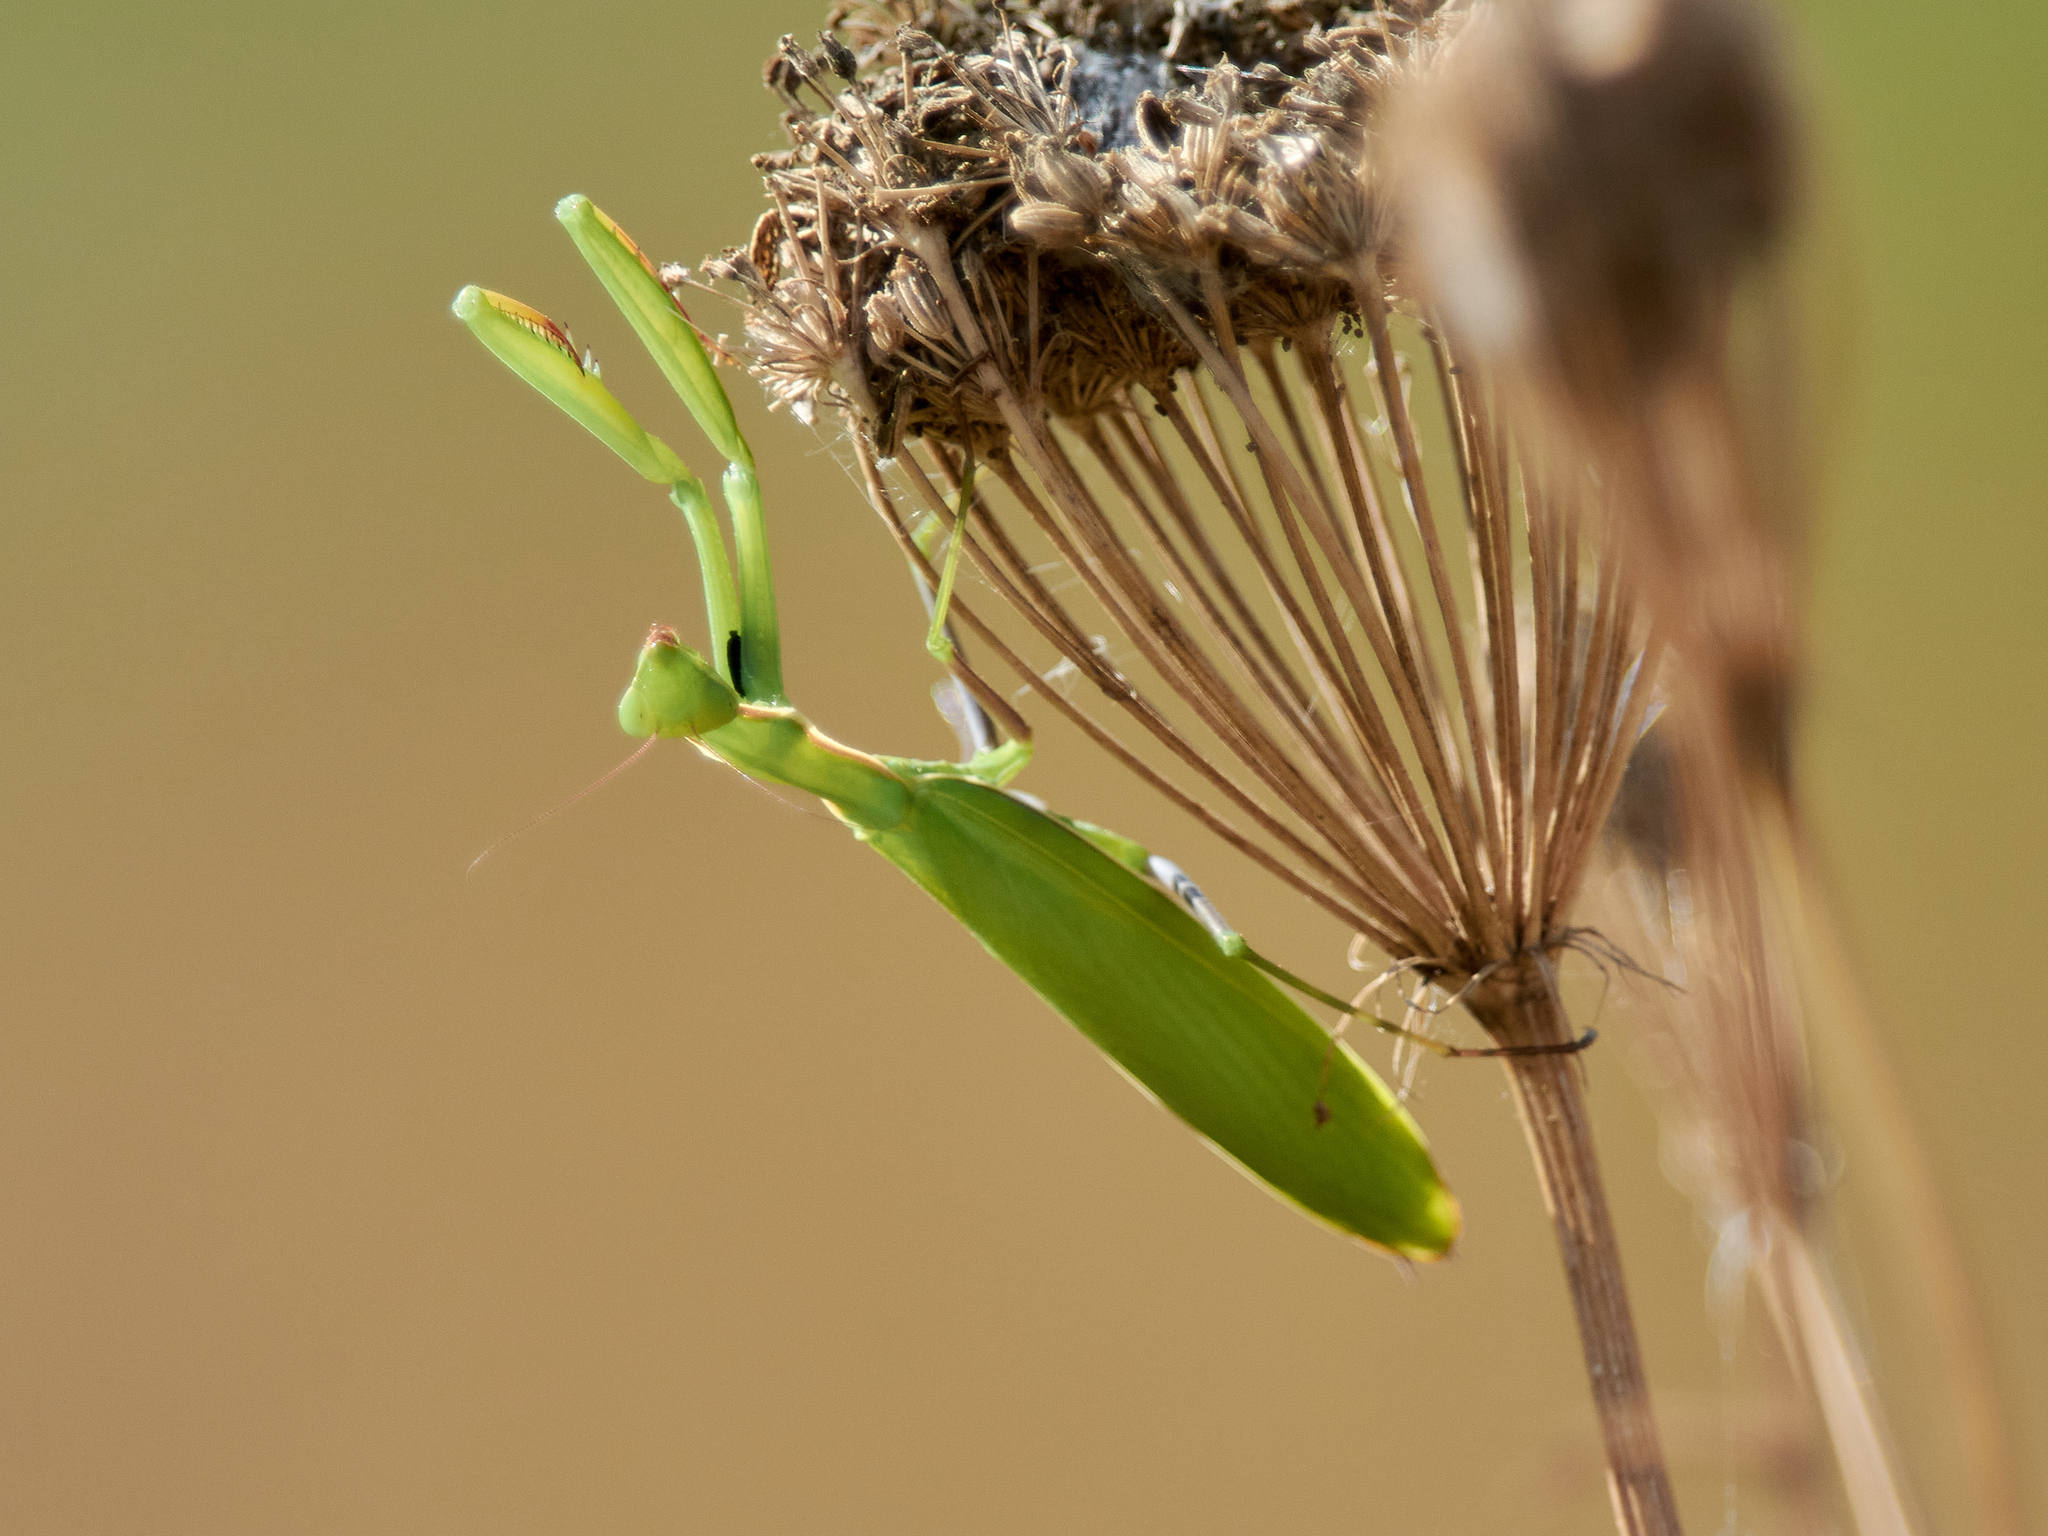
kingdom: Animalia
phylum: Arthropoda
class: Insecta
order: Mantodea
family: Mantidae
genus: Mantis
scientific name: Mantis religiosa
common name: Praying mantis
